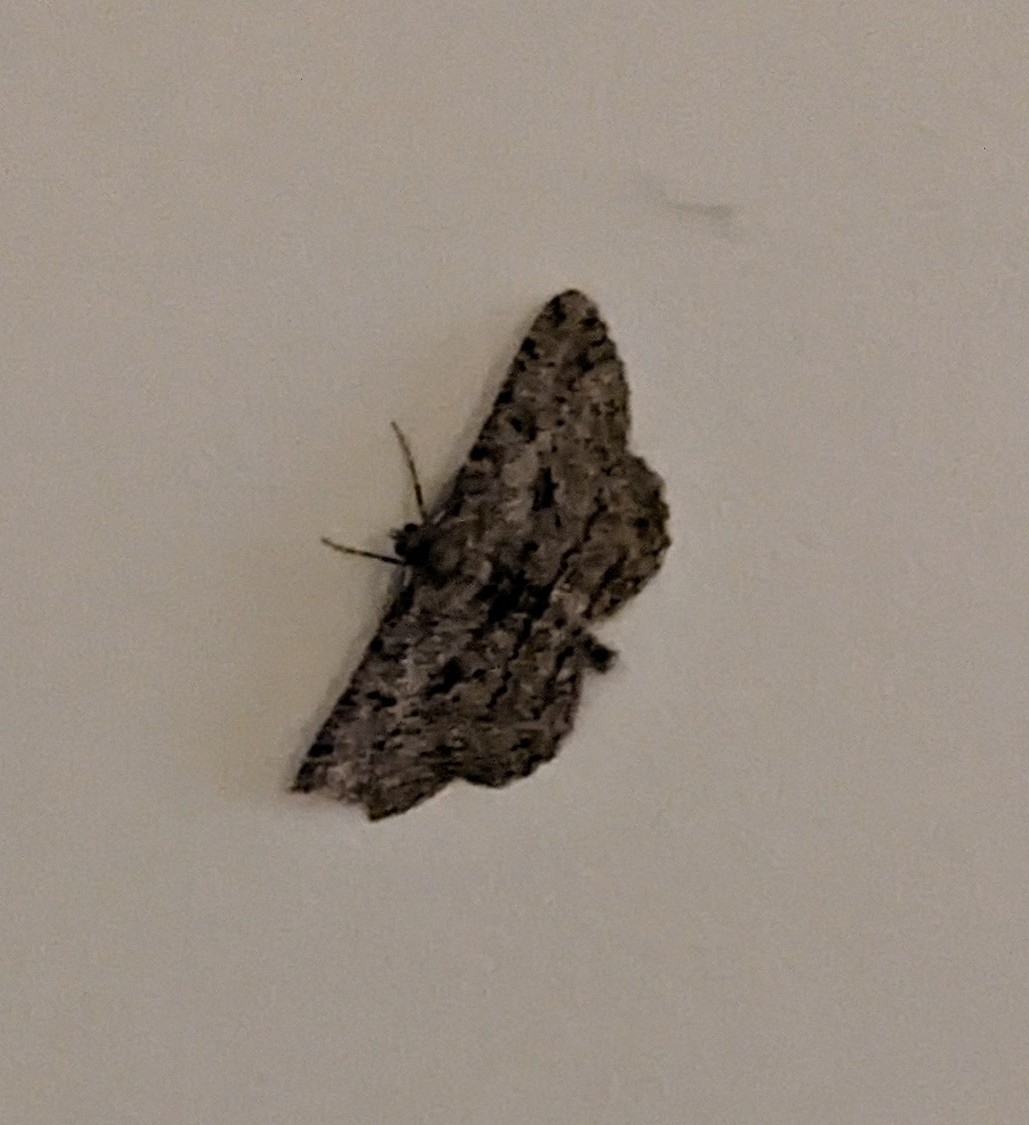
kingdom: Animalia
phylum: Arthropoda
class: Insecta
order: Lepidoptera
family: Geometridae
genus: Peribatodes
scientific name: Peribatodes rhomboidaria
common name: Willow beauty
